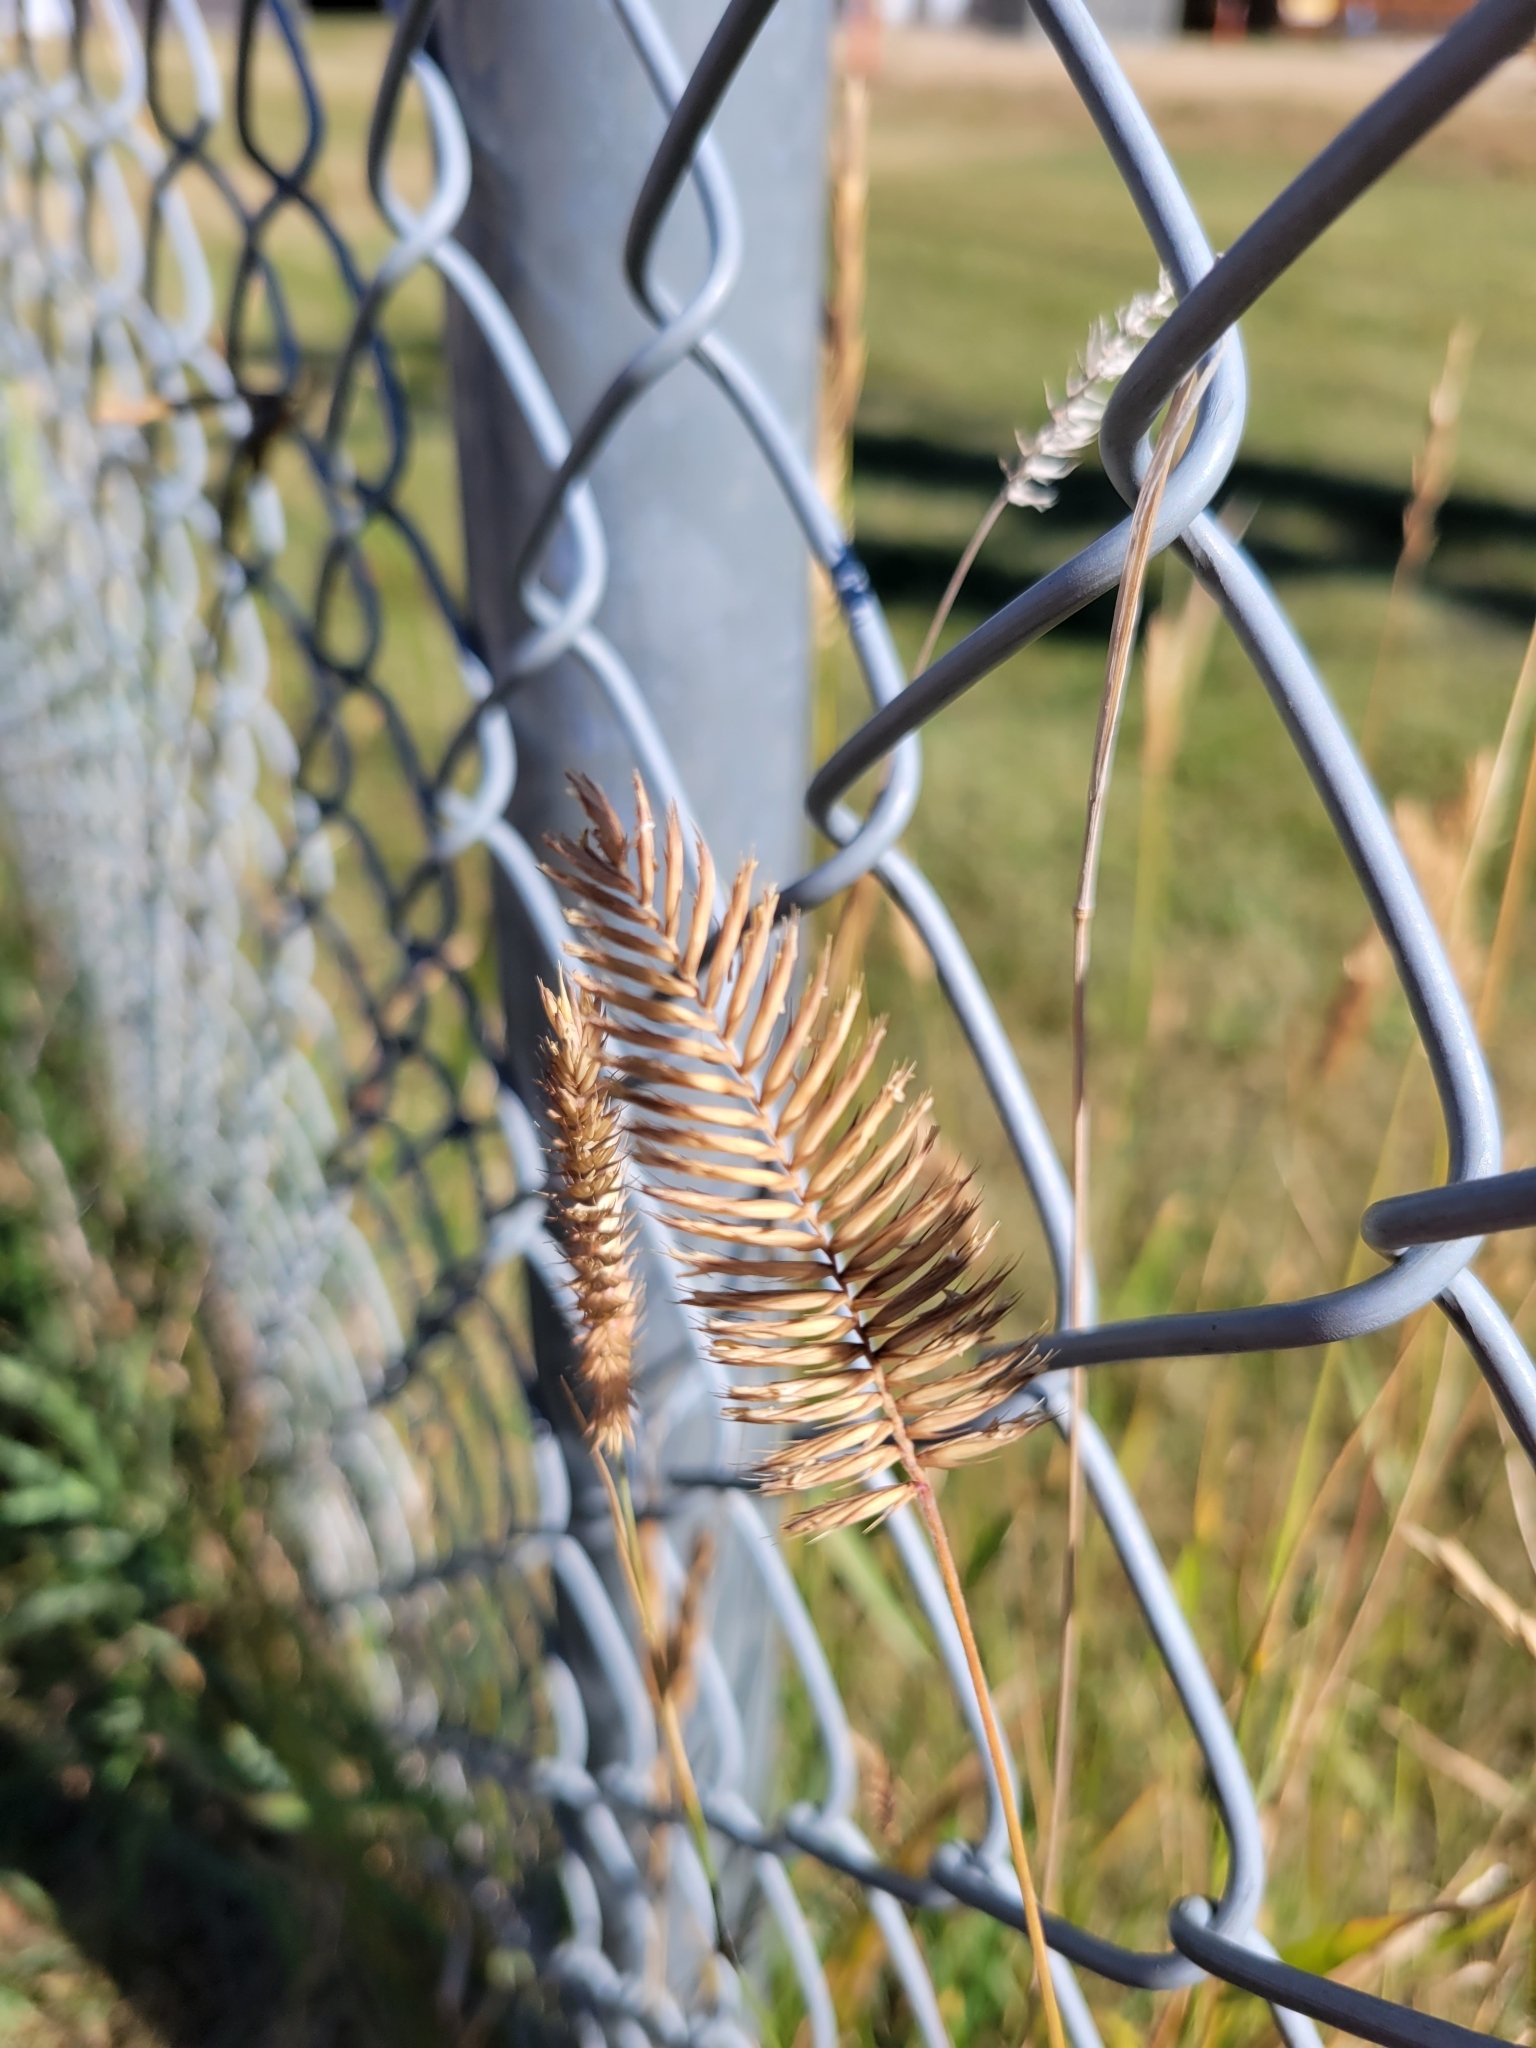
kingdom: Plantae
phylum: Tracheophyta
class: Liliopsida
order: Poales
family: Poaceae
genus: Agropyron
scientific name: Agropyron cristatum
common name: Crested wheatgrass
